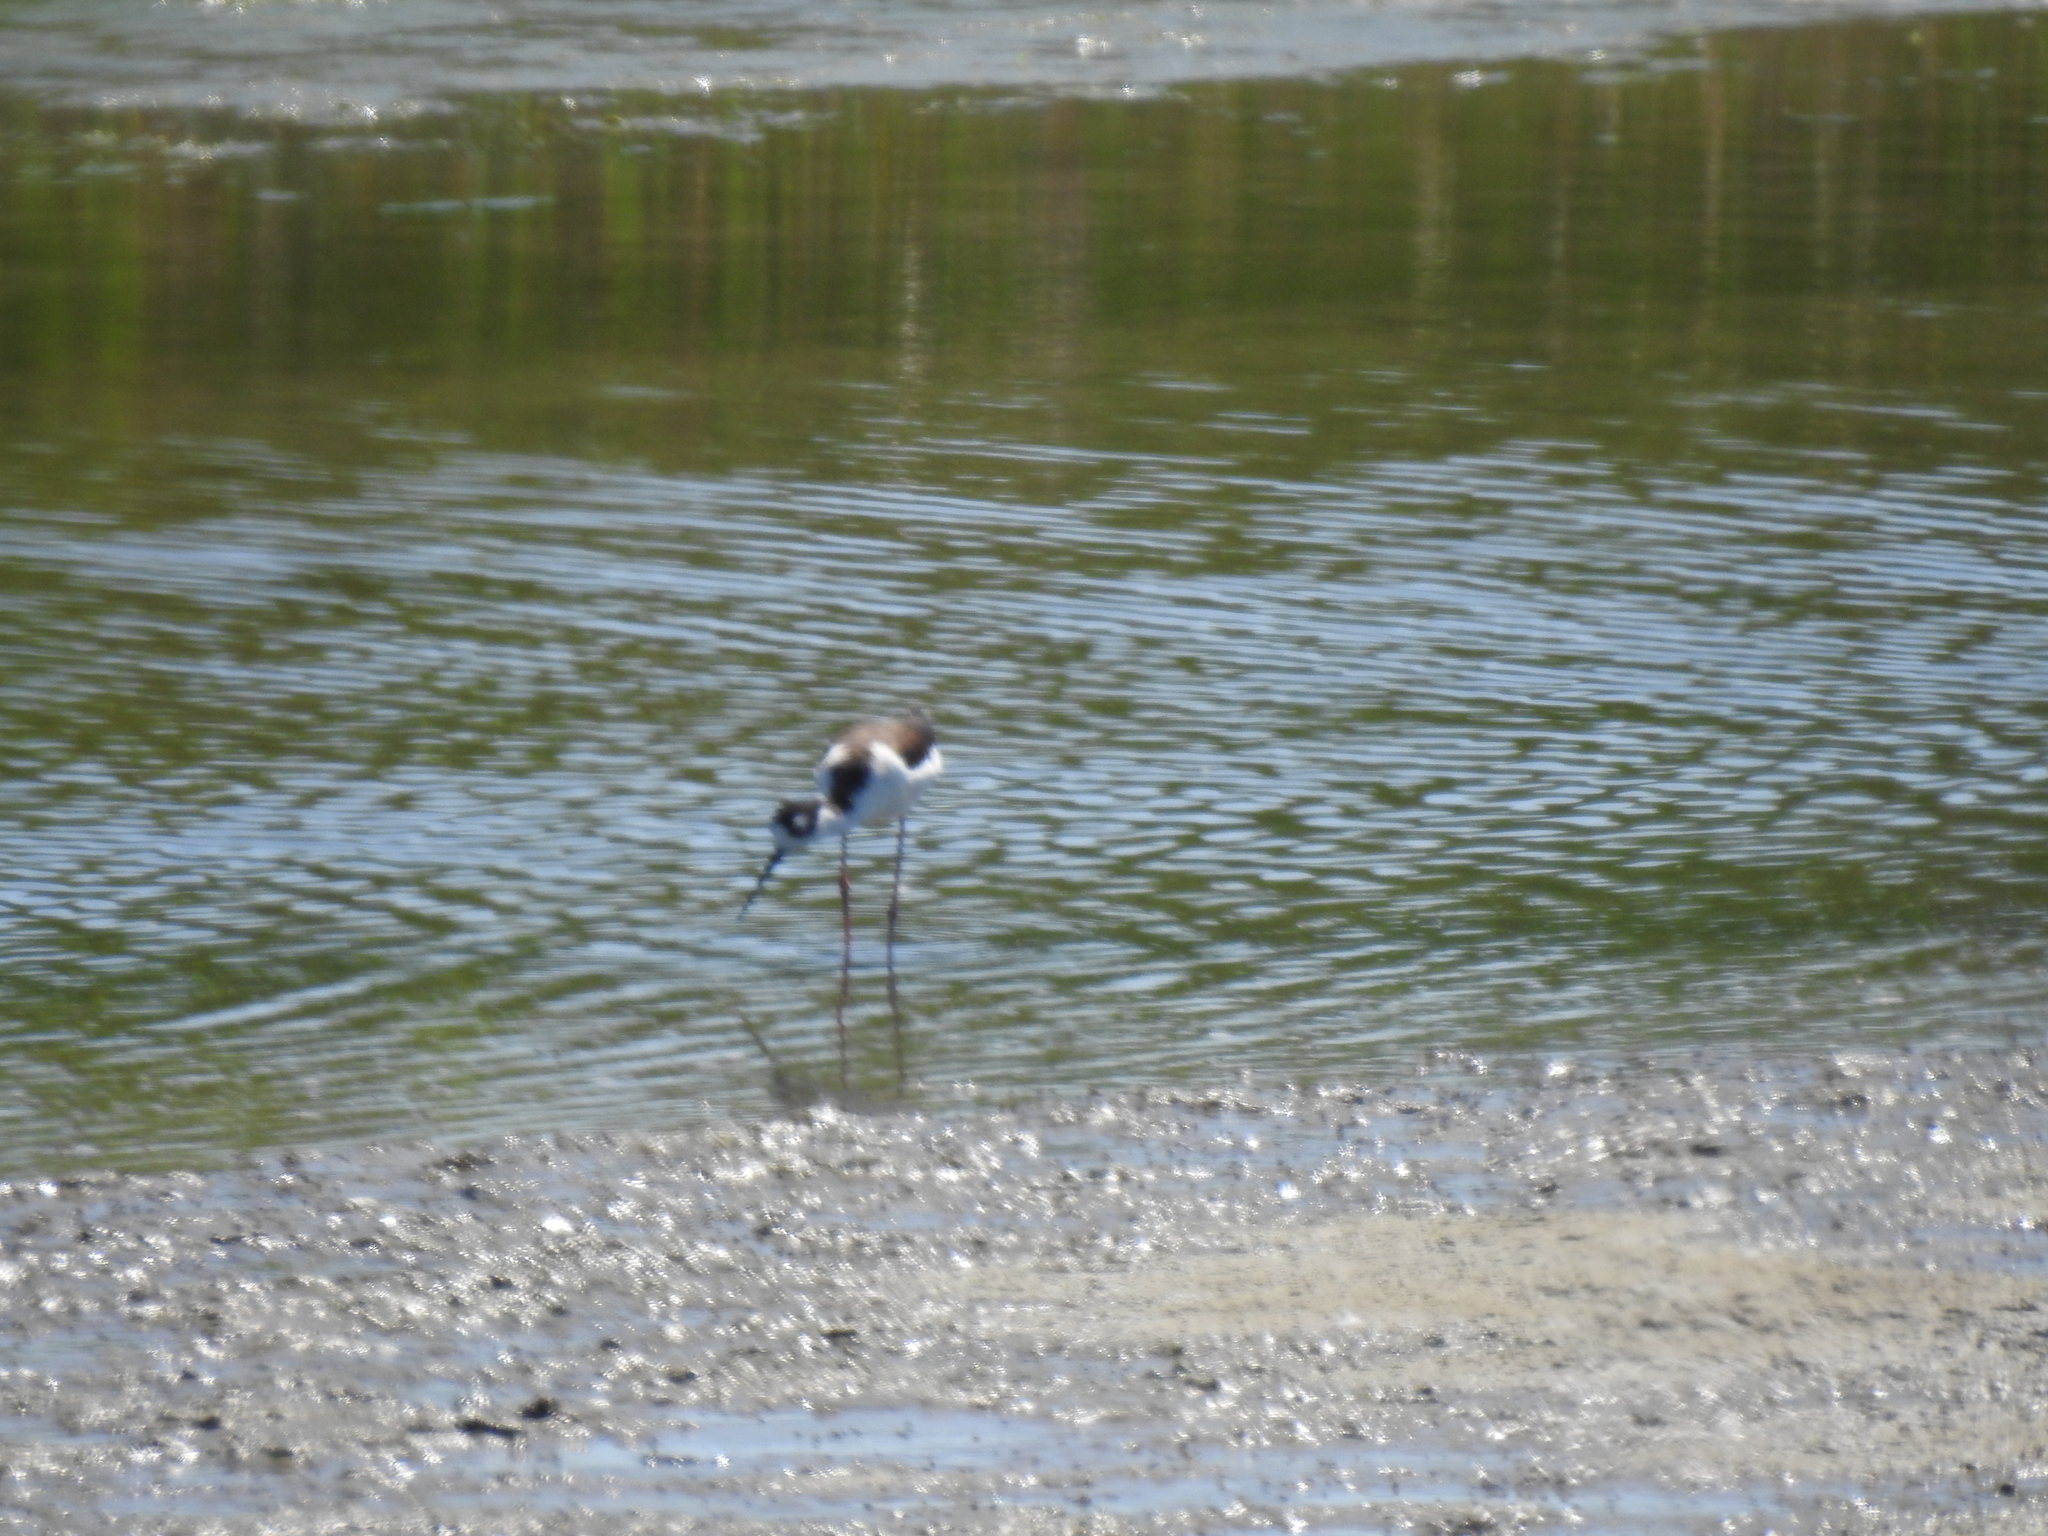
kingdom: Animalia
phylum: Chordata
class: Aves
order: Charadriiformes
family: Recurvirostridae
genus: Himantopus
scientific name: Himantopus mexicanus
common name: Black-necked stilt
